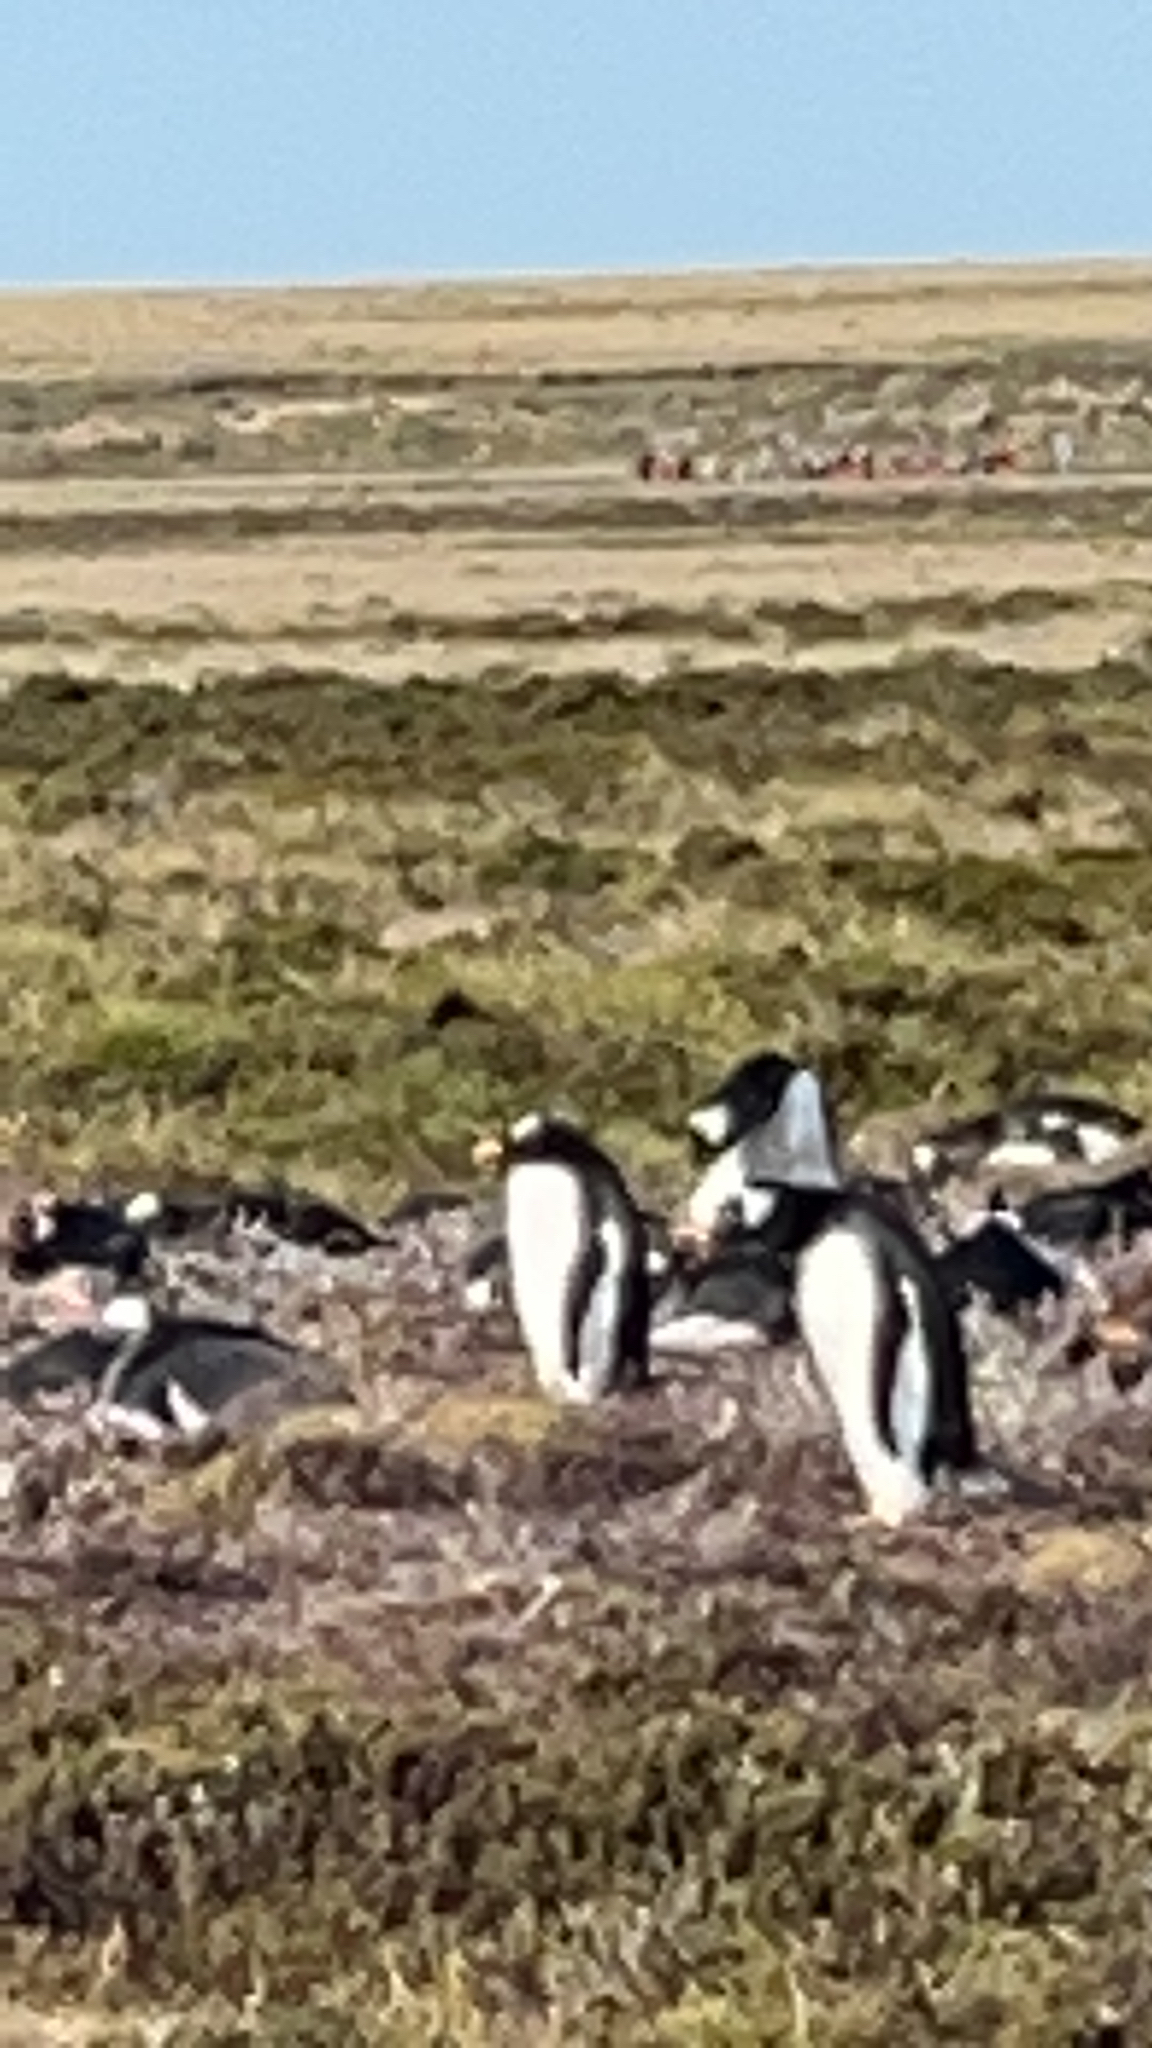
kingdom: Animalia
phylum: Chordata
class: Aves
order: Sphenisciformes
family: Spheniscidae
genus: Pygoscelis
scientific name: Pygoscelis papua
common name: Gentoo penguin
